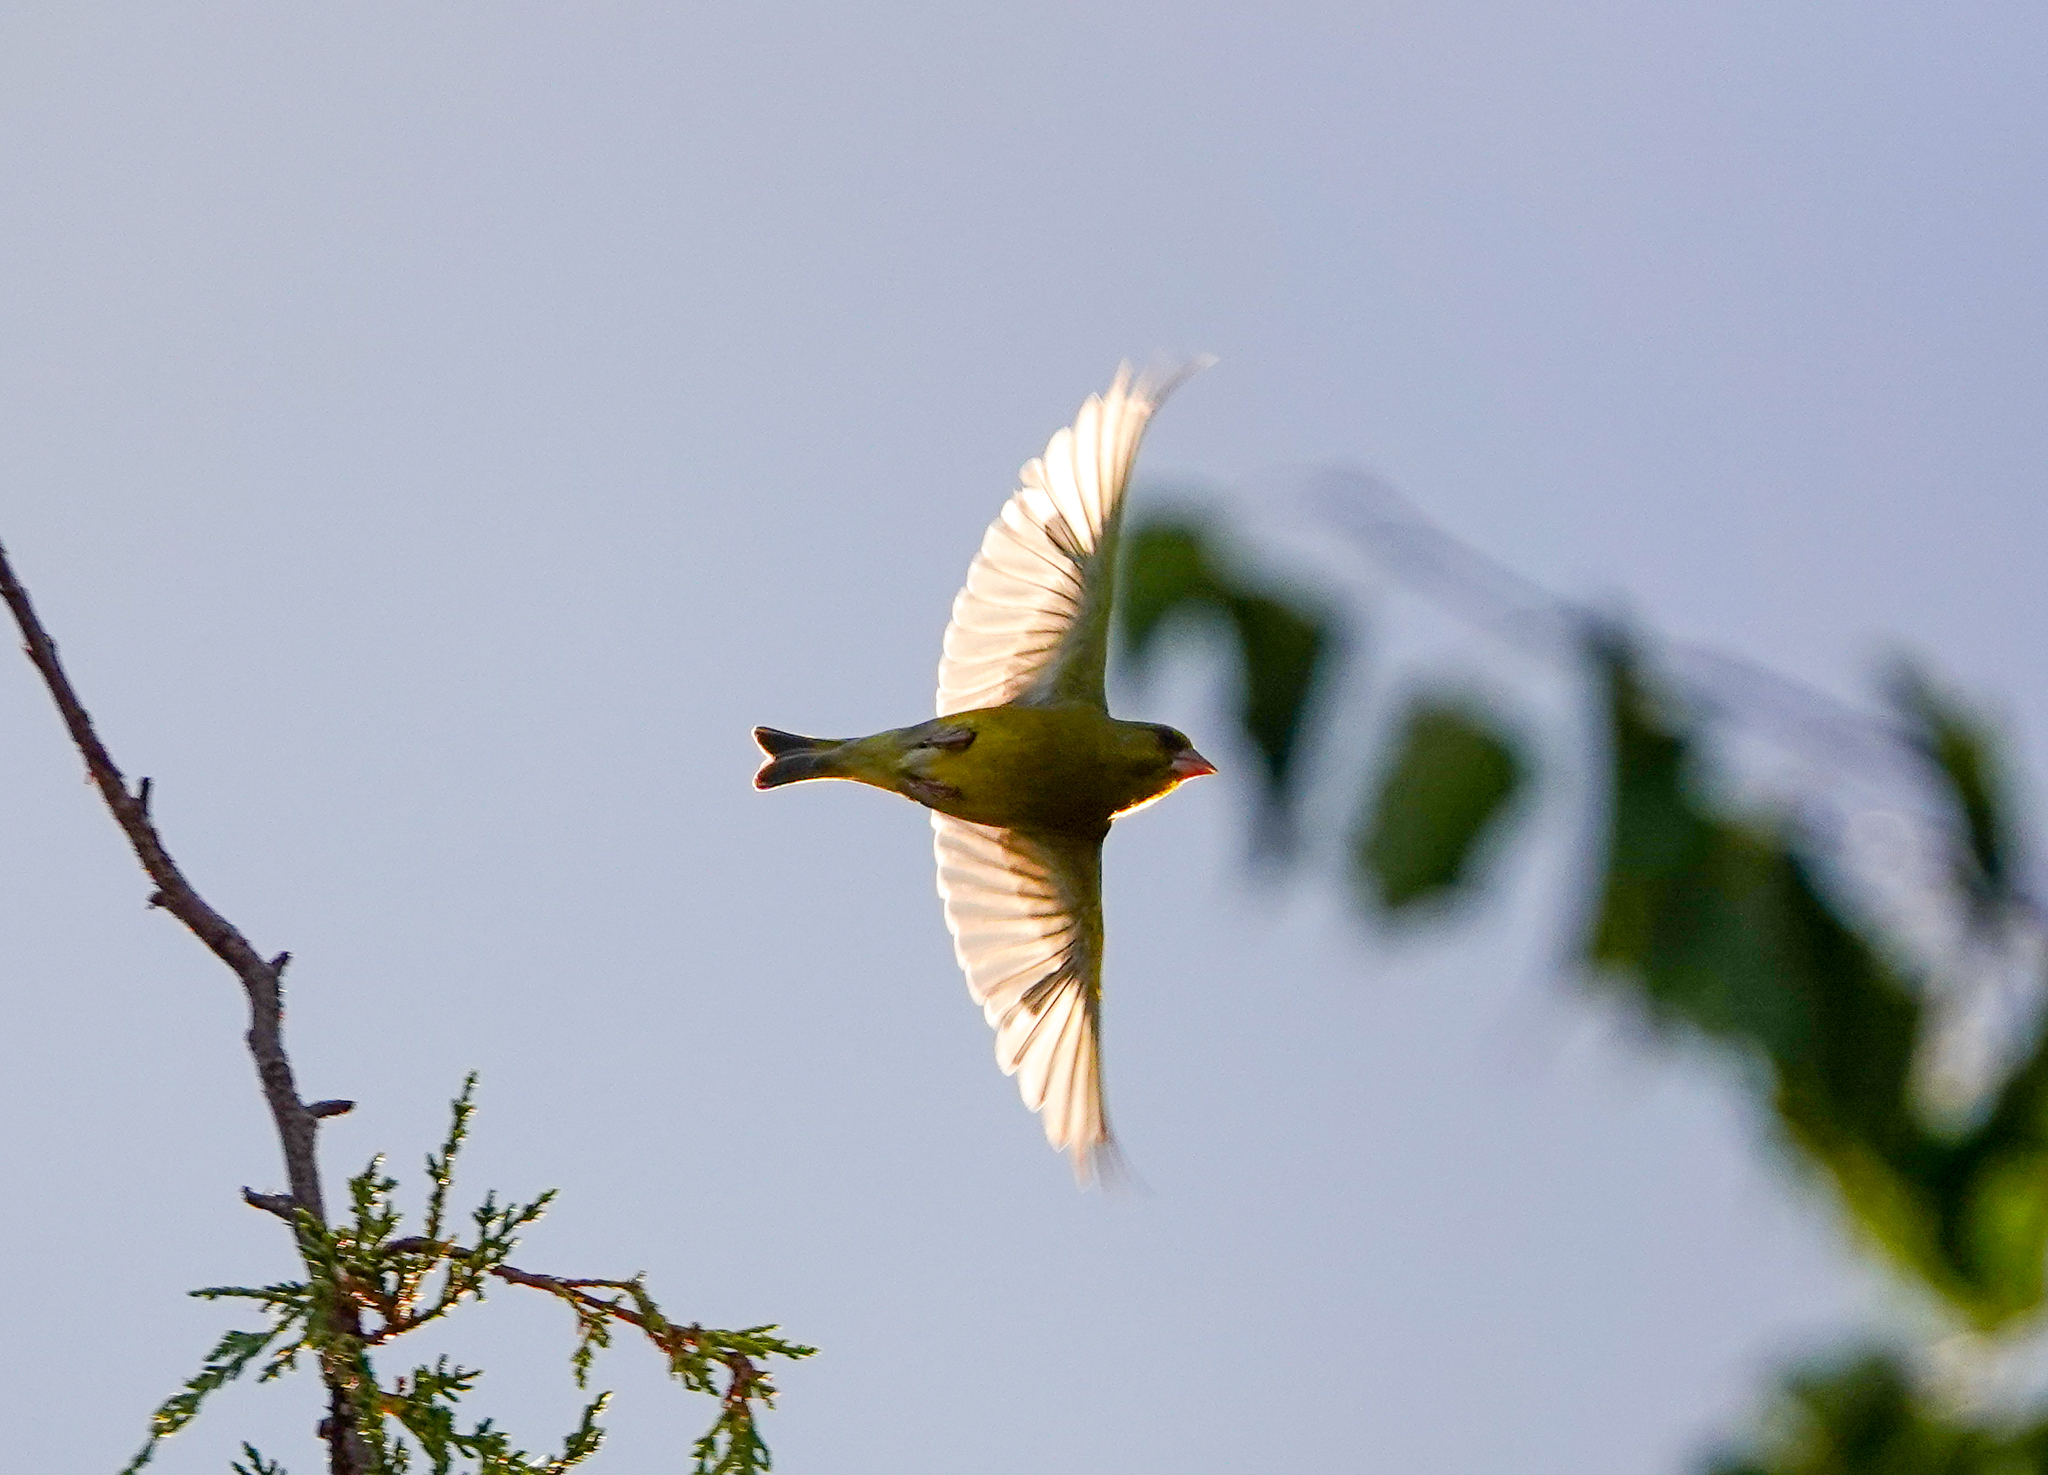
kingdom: Plantae
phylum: Tracheophyta
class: Liliopsida
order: Poales
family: Poaceae
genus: Chloris
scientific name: Chloris chloris
